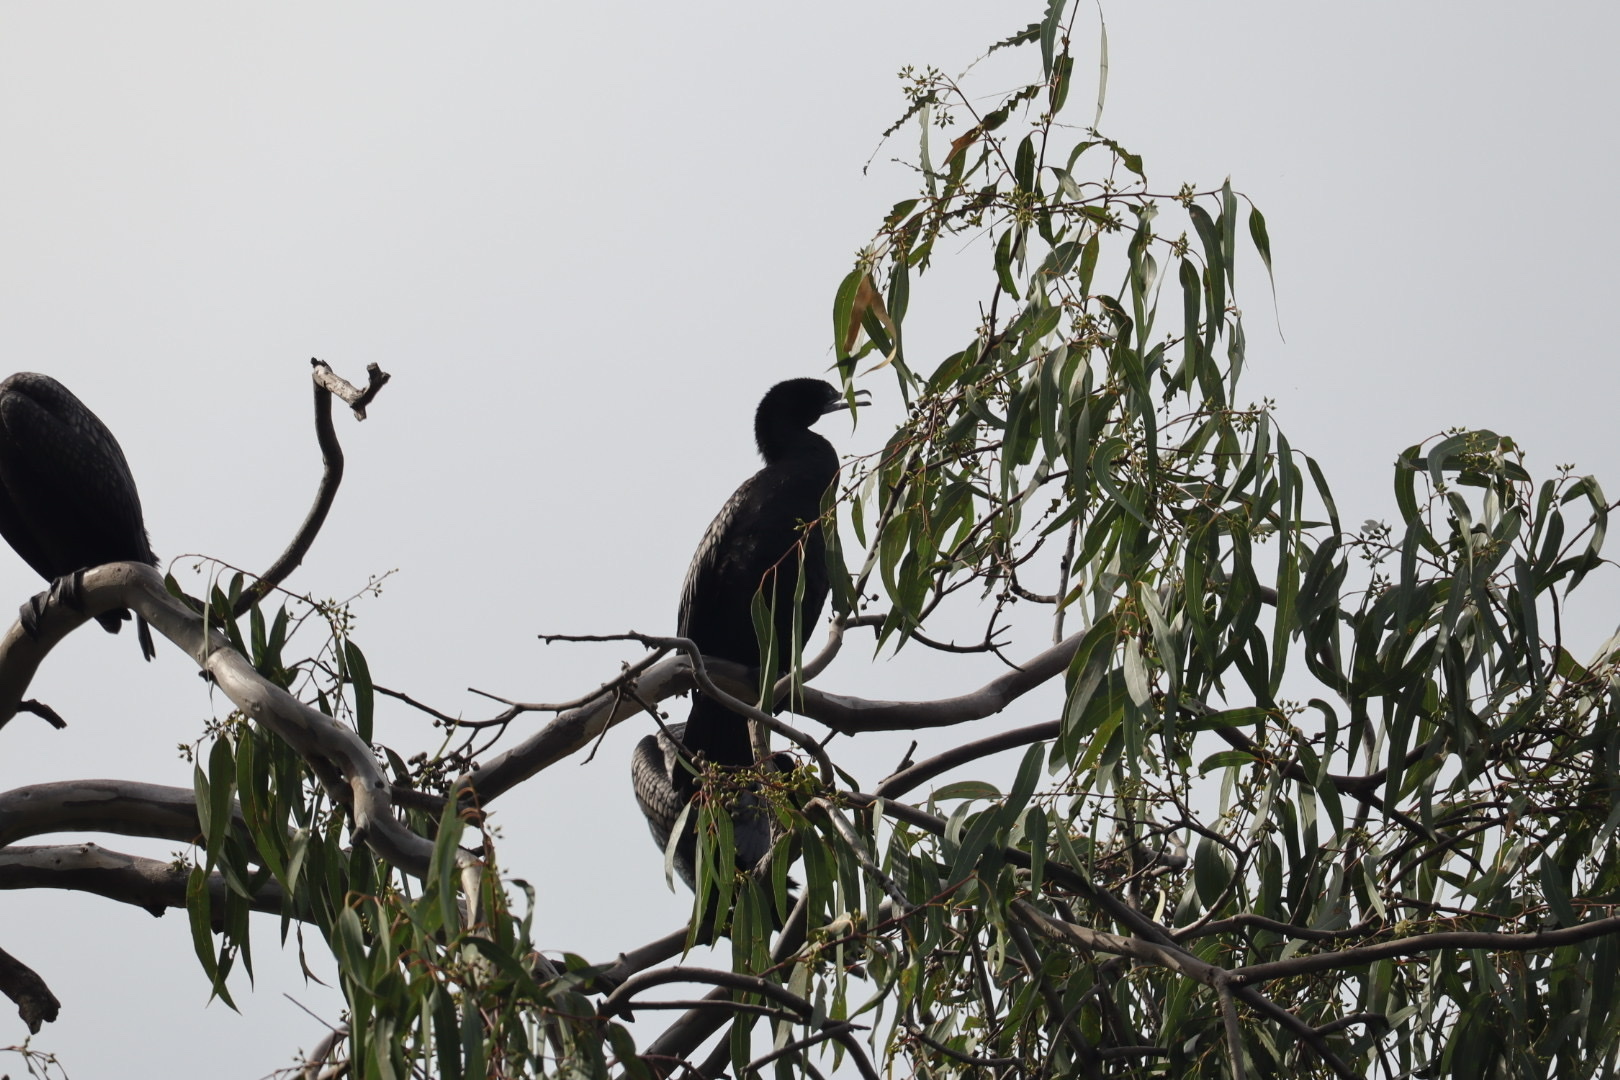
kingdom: Animalia
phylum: Chordata
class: Aves
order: Suliformes
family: Phalacrocoracidae
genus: Phalacrocorax
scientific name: Phalacrocorax sulcirostris
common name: Little black cormorant
